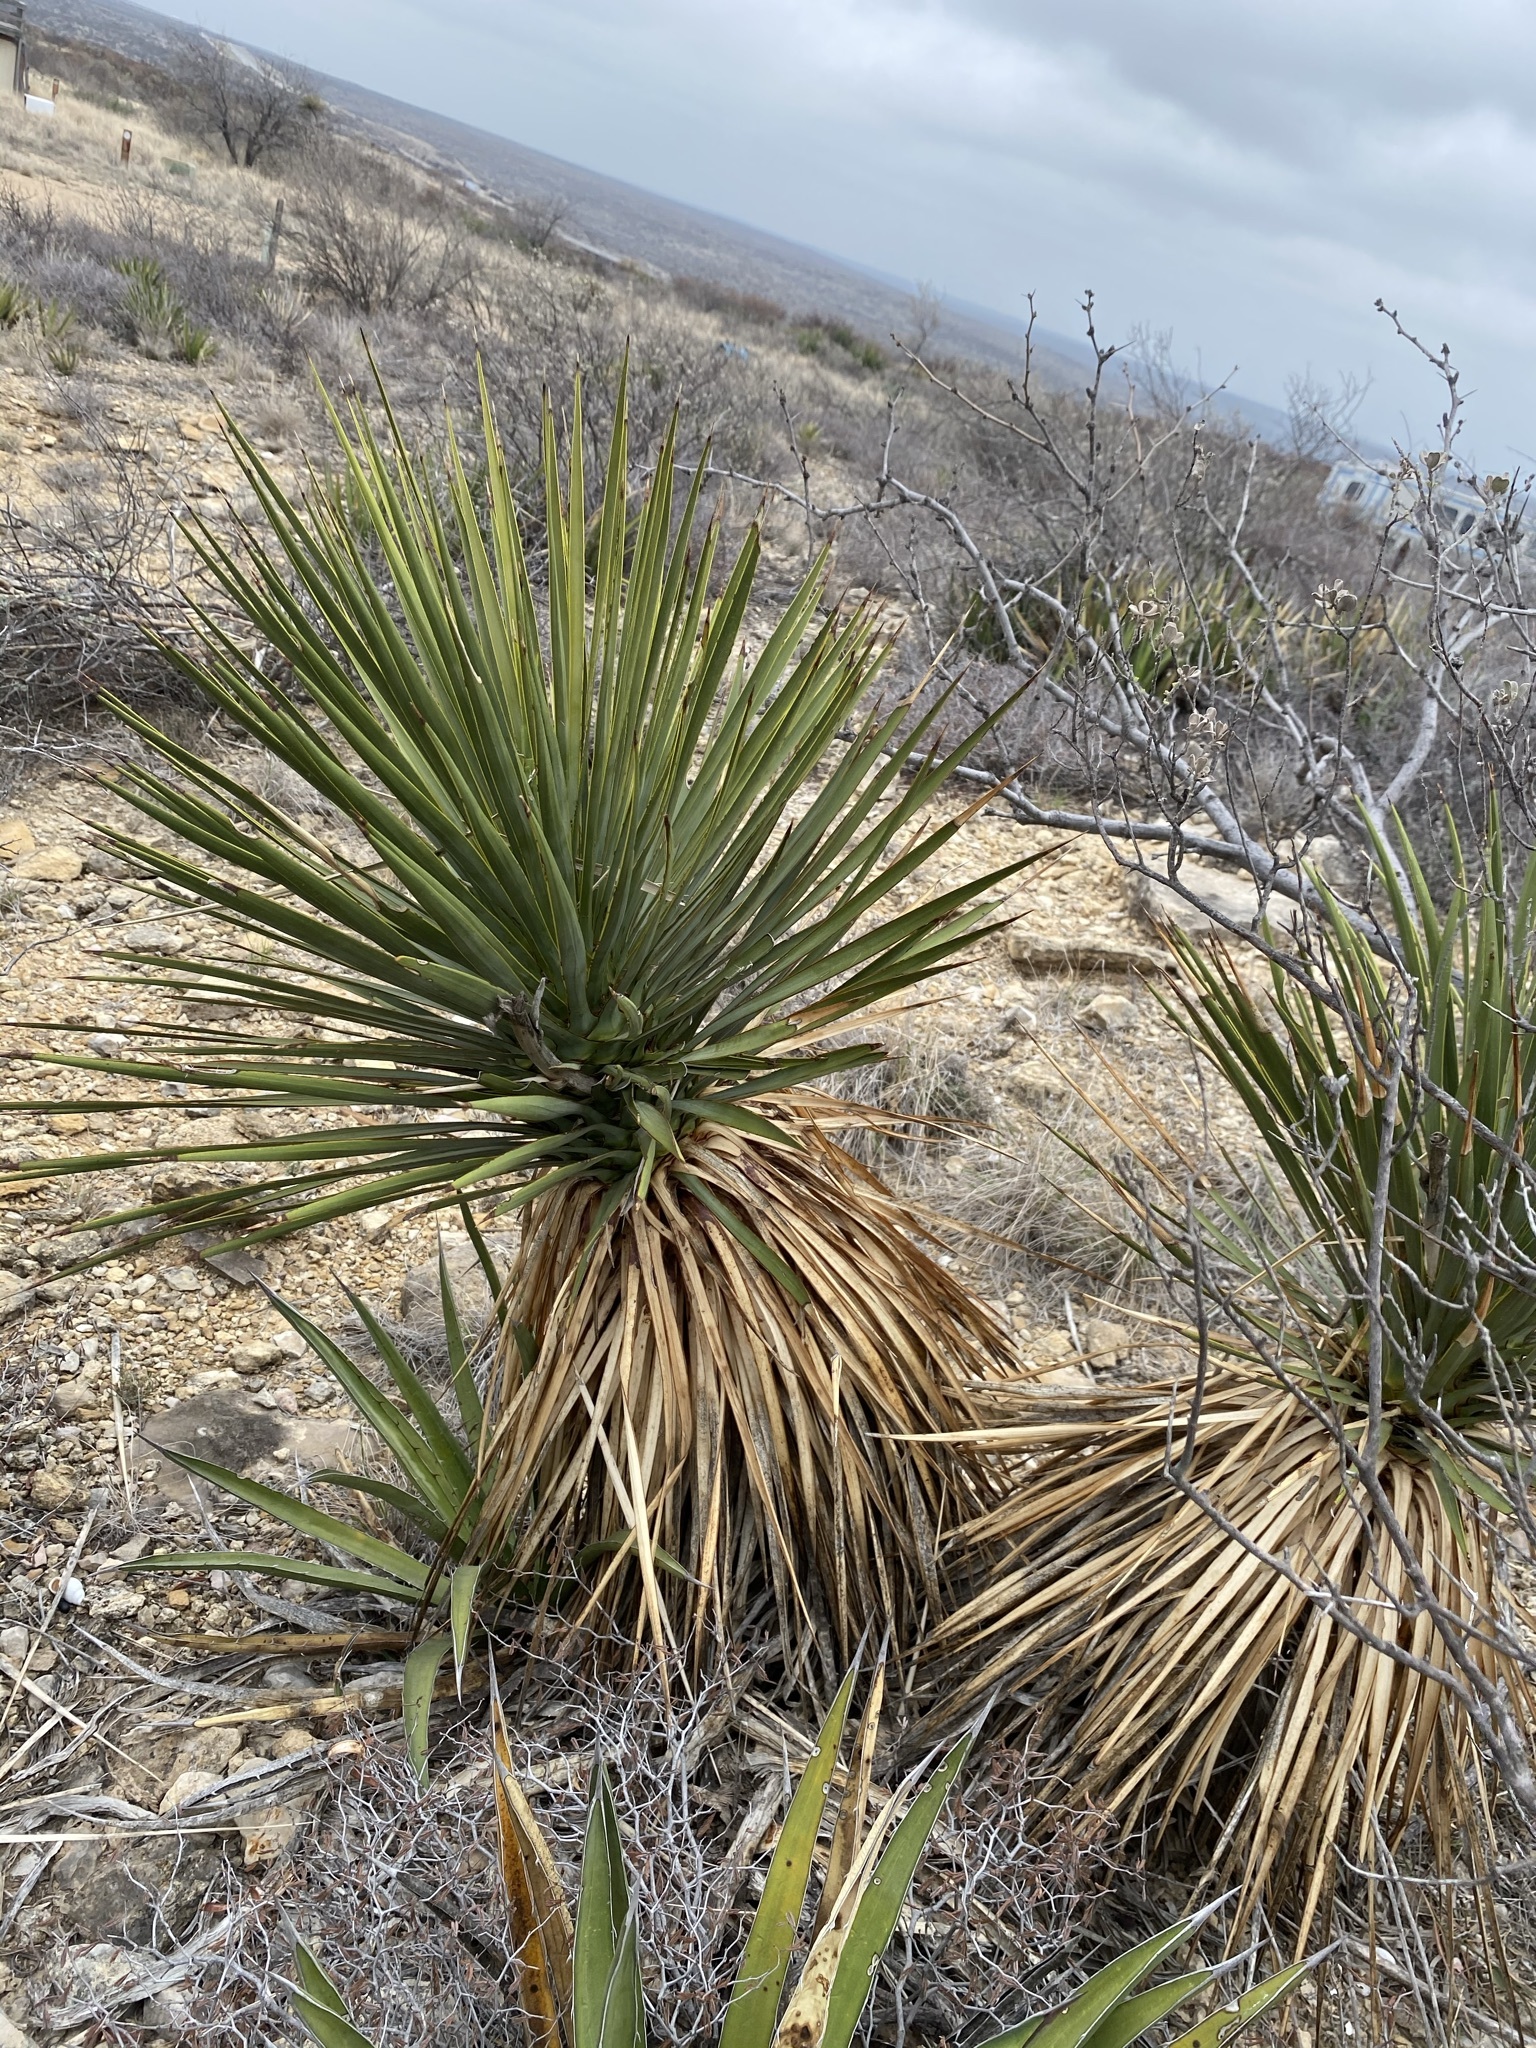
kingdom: Plantae
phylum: Tracheophyta
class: Liliopsida
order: Asparagales
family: Asparagaceae
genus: Yucca
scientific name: Yucca thompsoniana
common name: Trans-pecos yucca
